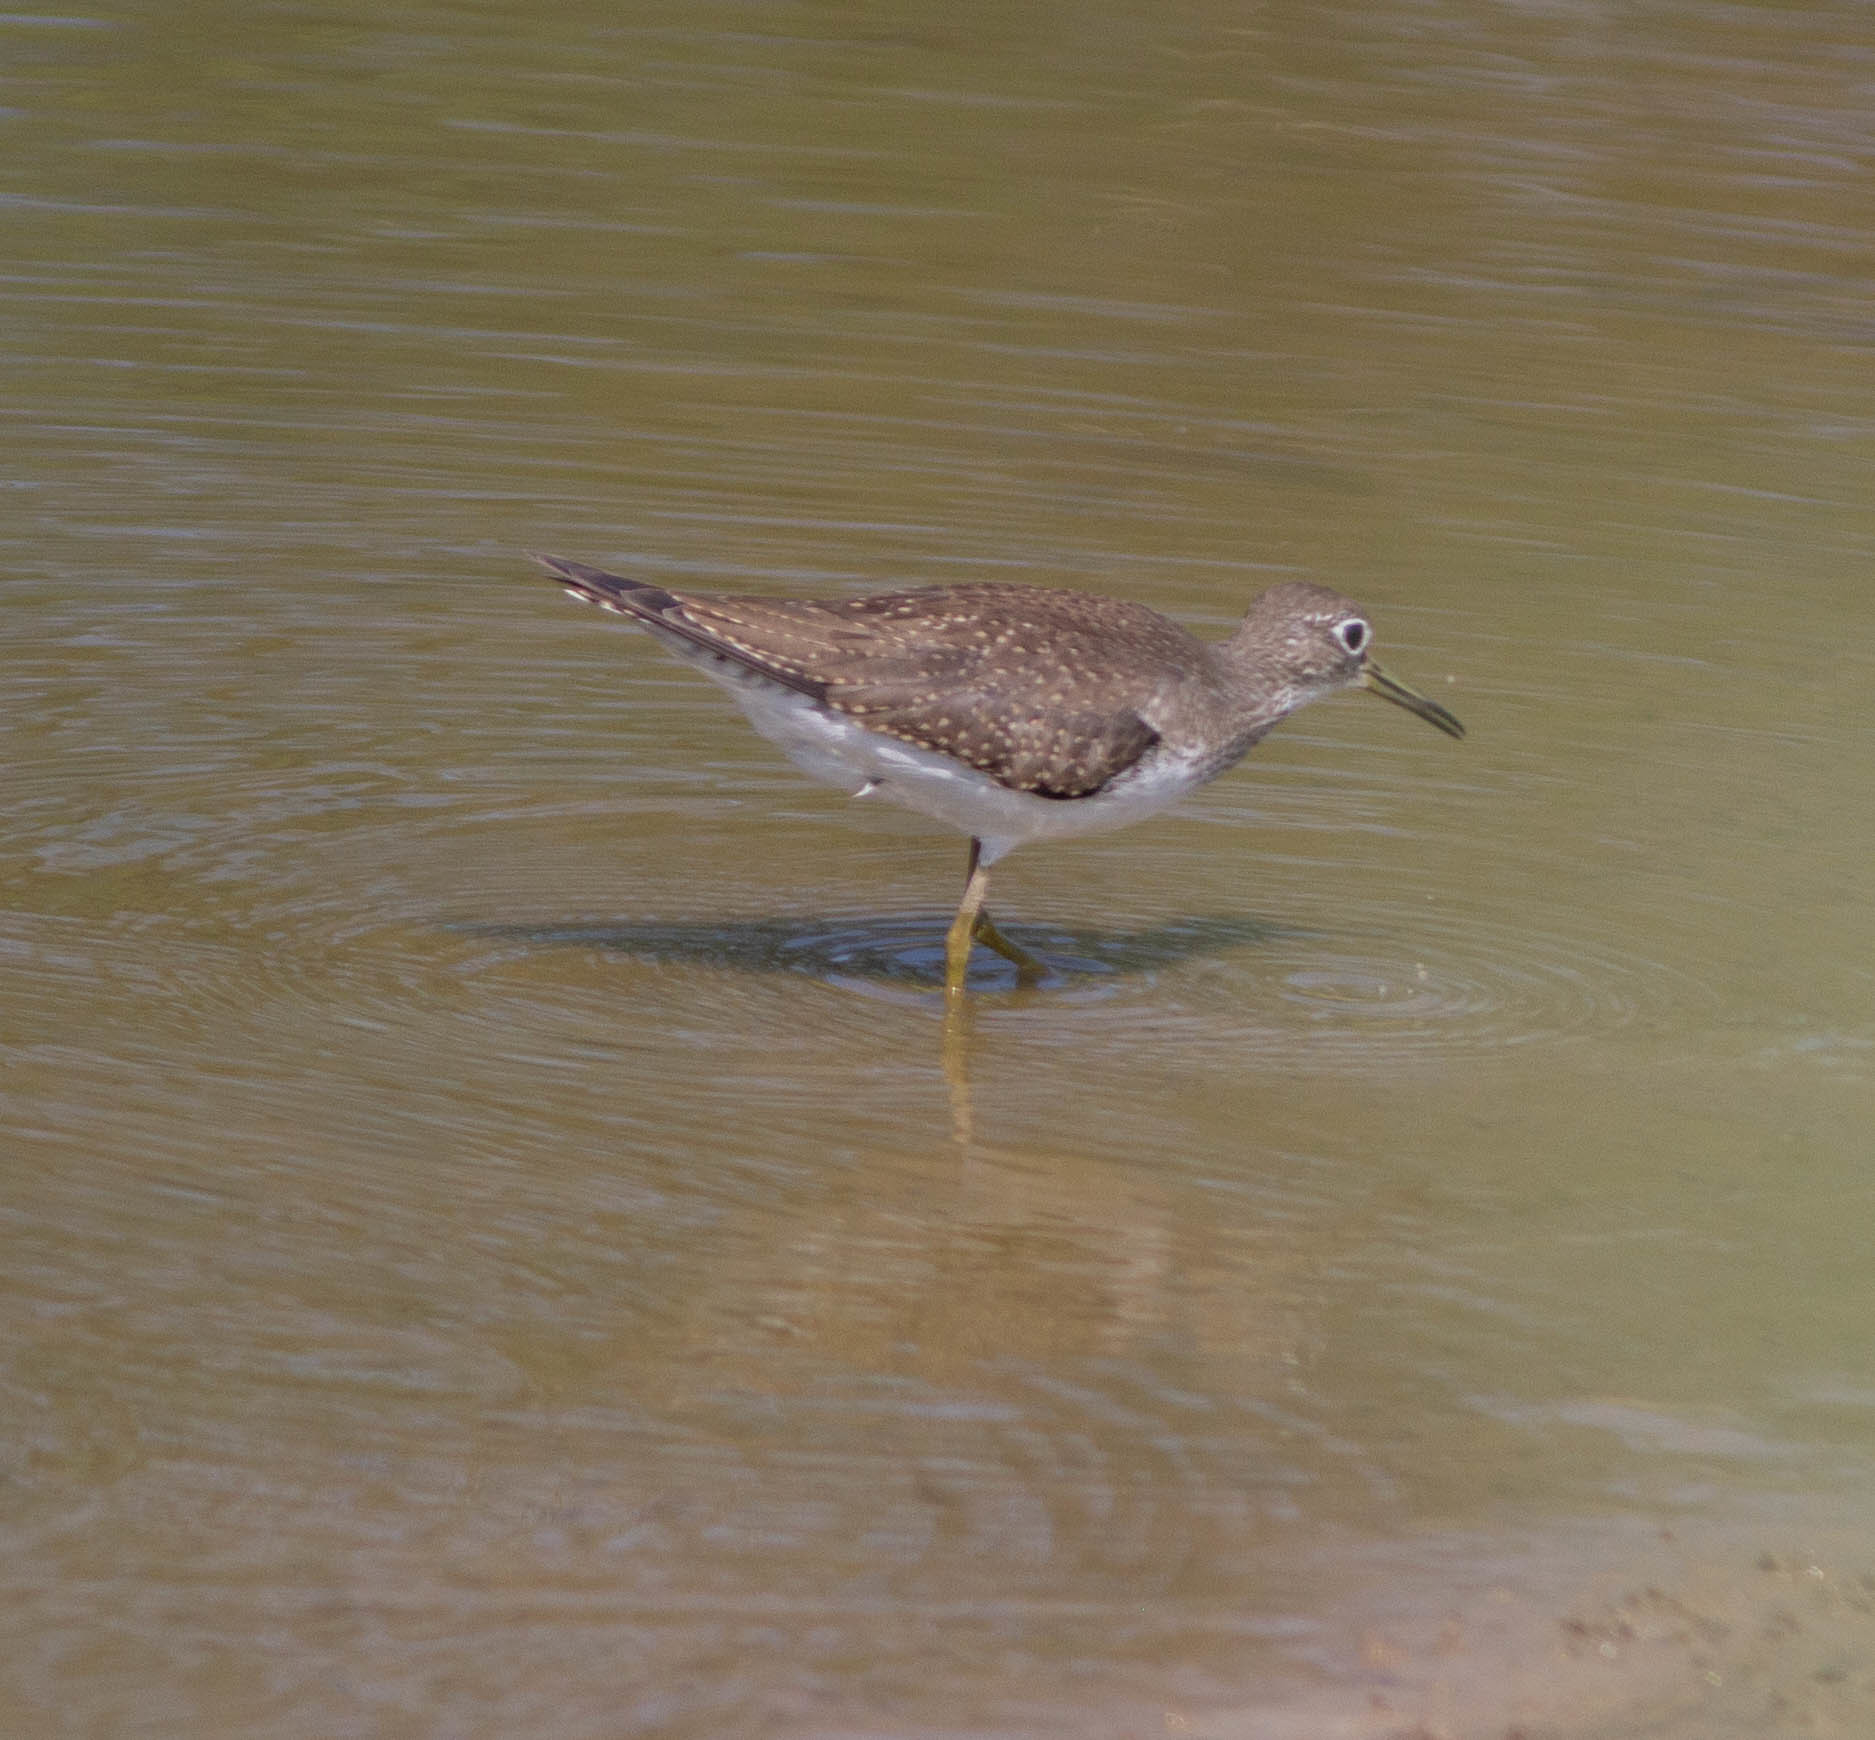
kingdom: Animalia
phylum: Chordata
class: Aves
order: Charadriiformes
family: Scolopacidae
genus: Tringa
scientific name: Tringa solitaria
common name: Solitary sandpiper
